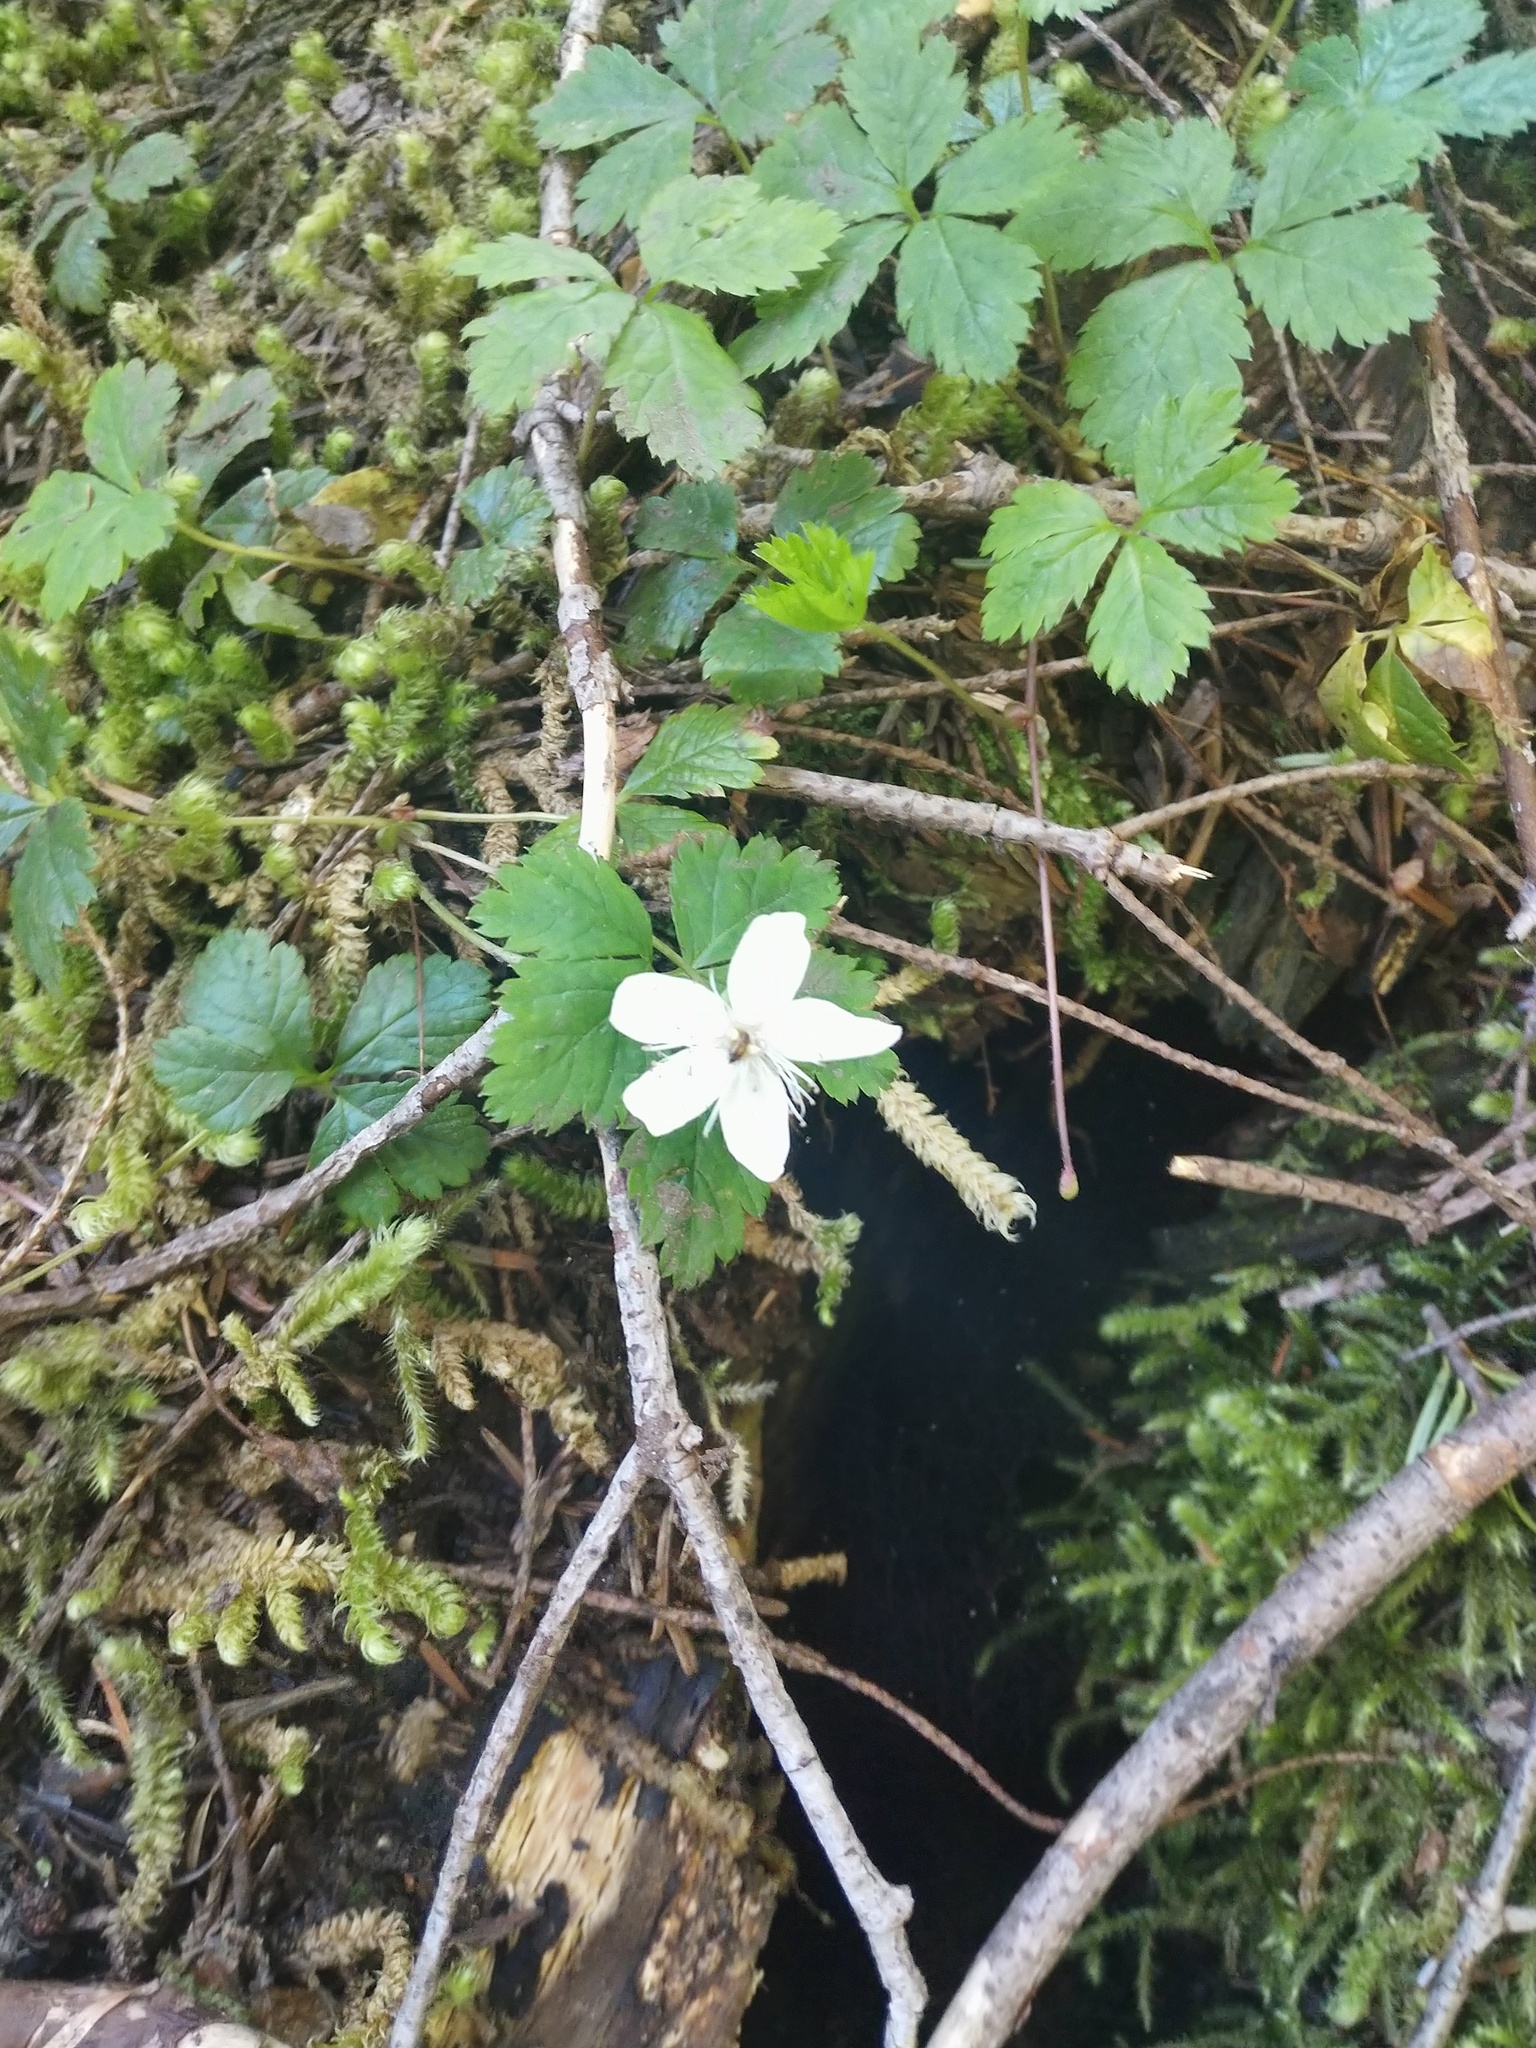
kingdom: Plantae
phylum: Tracheophyta
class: Magnoliopsida
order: Rosales
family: Rosaceae
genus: Rubus
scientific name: Rubus pedatus
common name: Creeping raspberry
